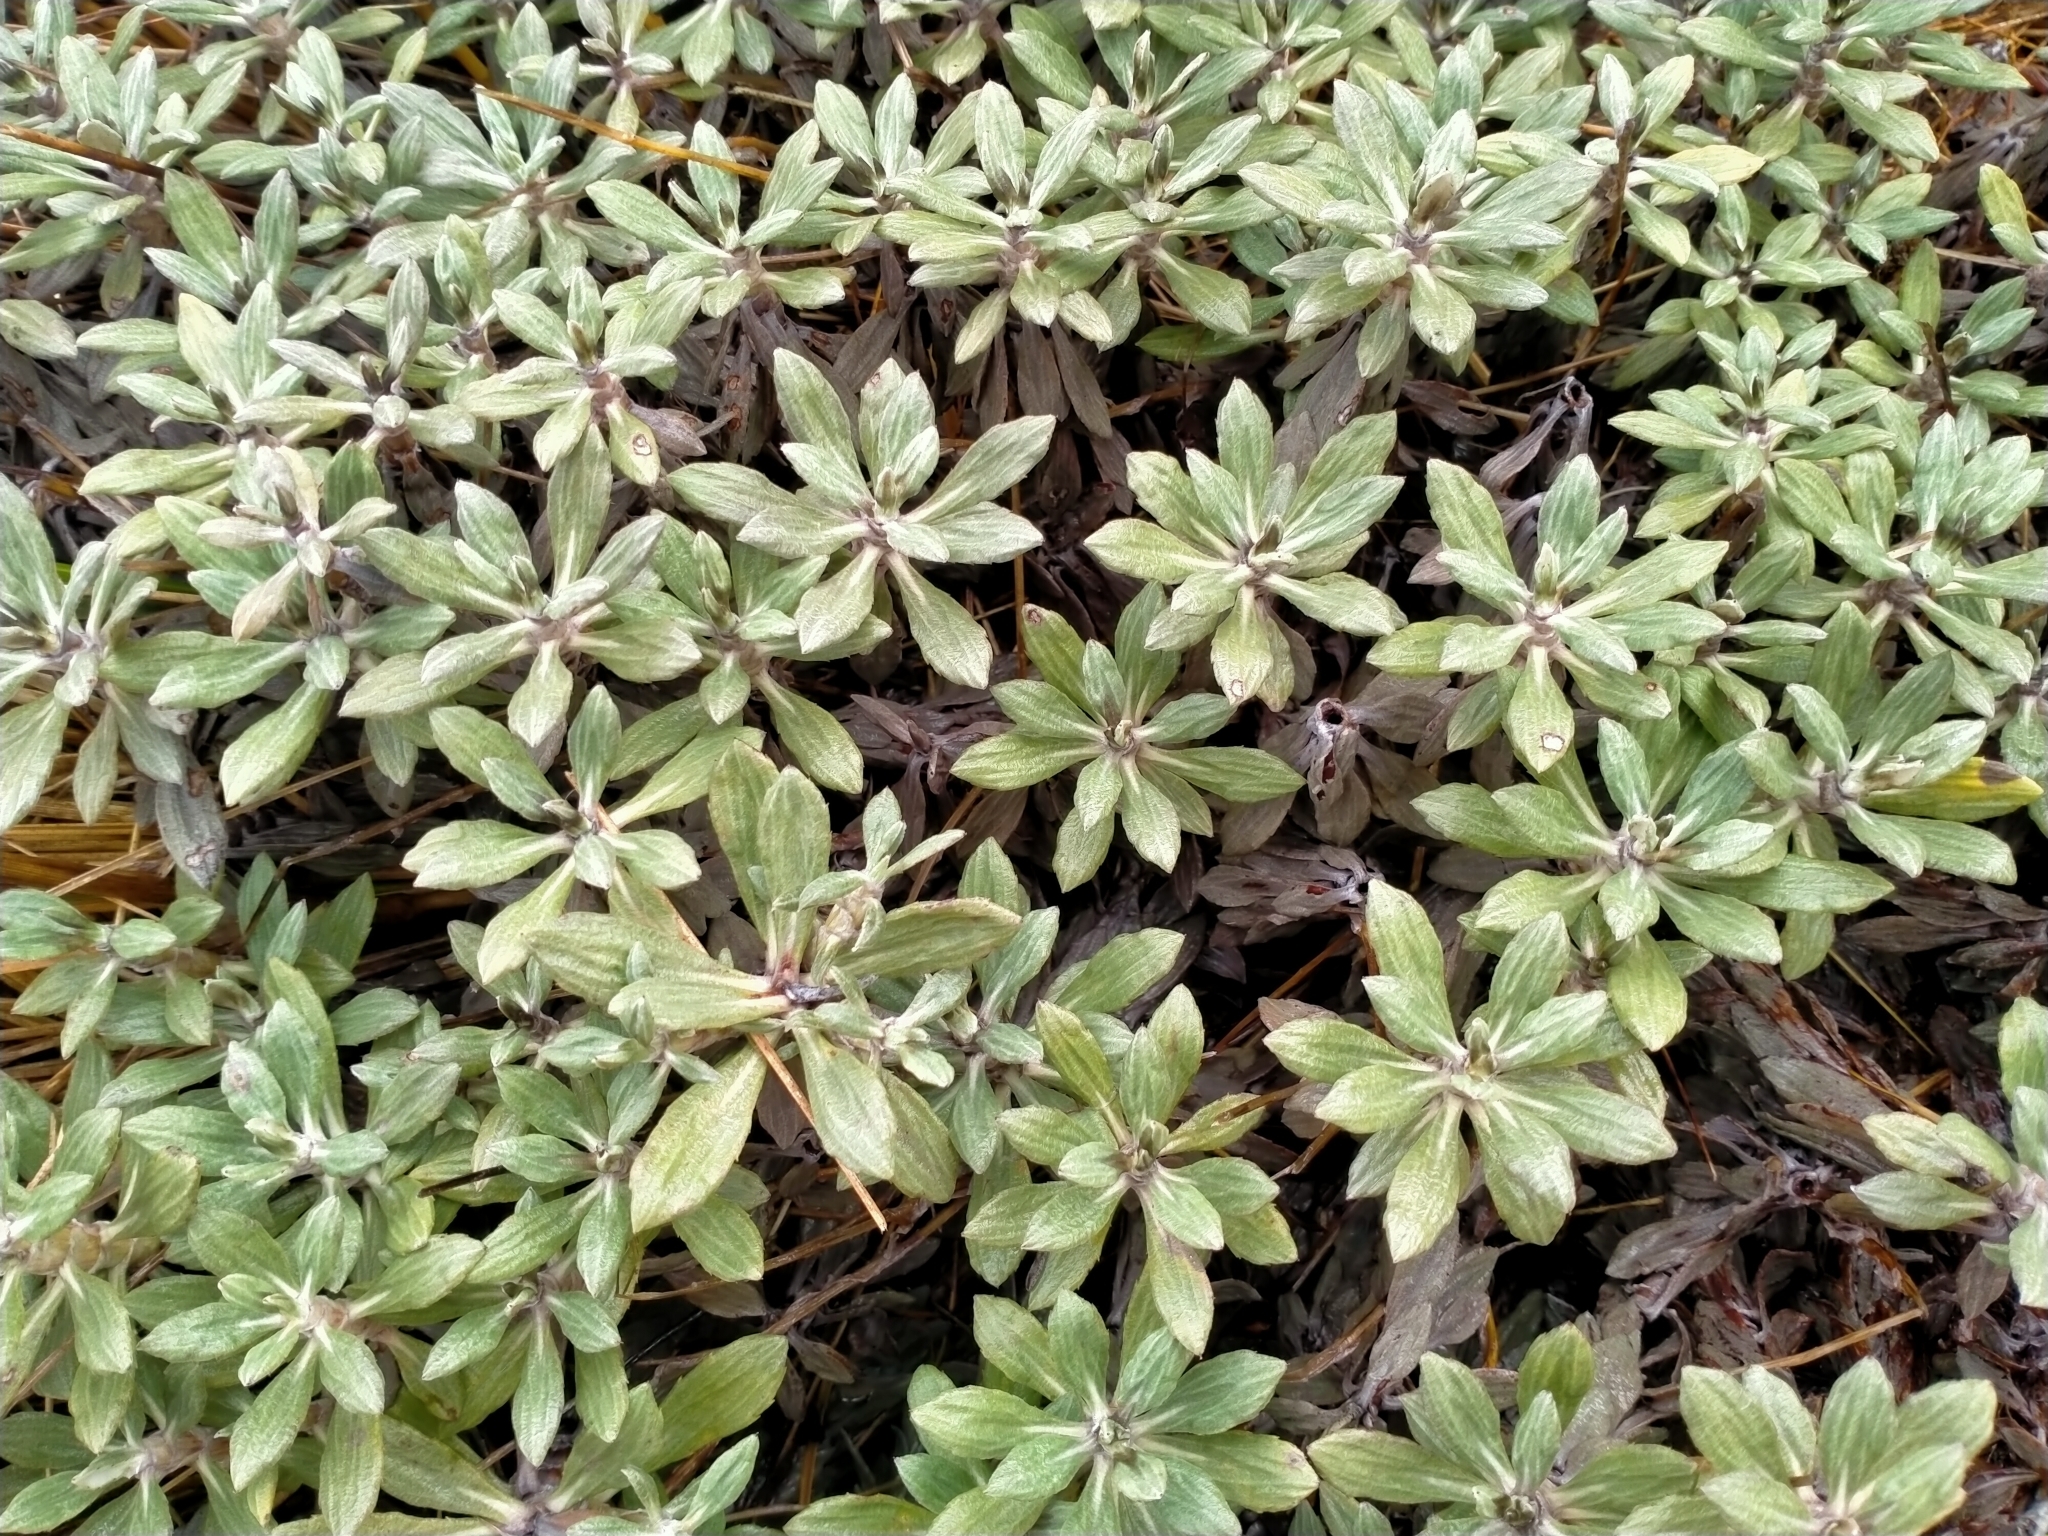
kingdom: Plantae
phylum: Tracheophyta
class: Magnoliopsida
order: Asterales
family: Asteraceae
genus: Celmisia
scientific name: Celmisia discolor
